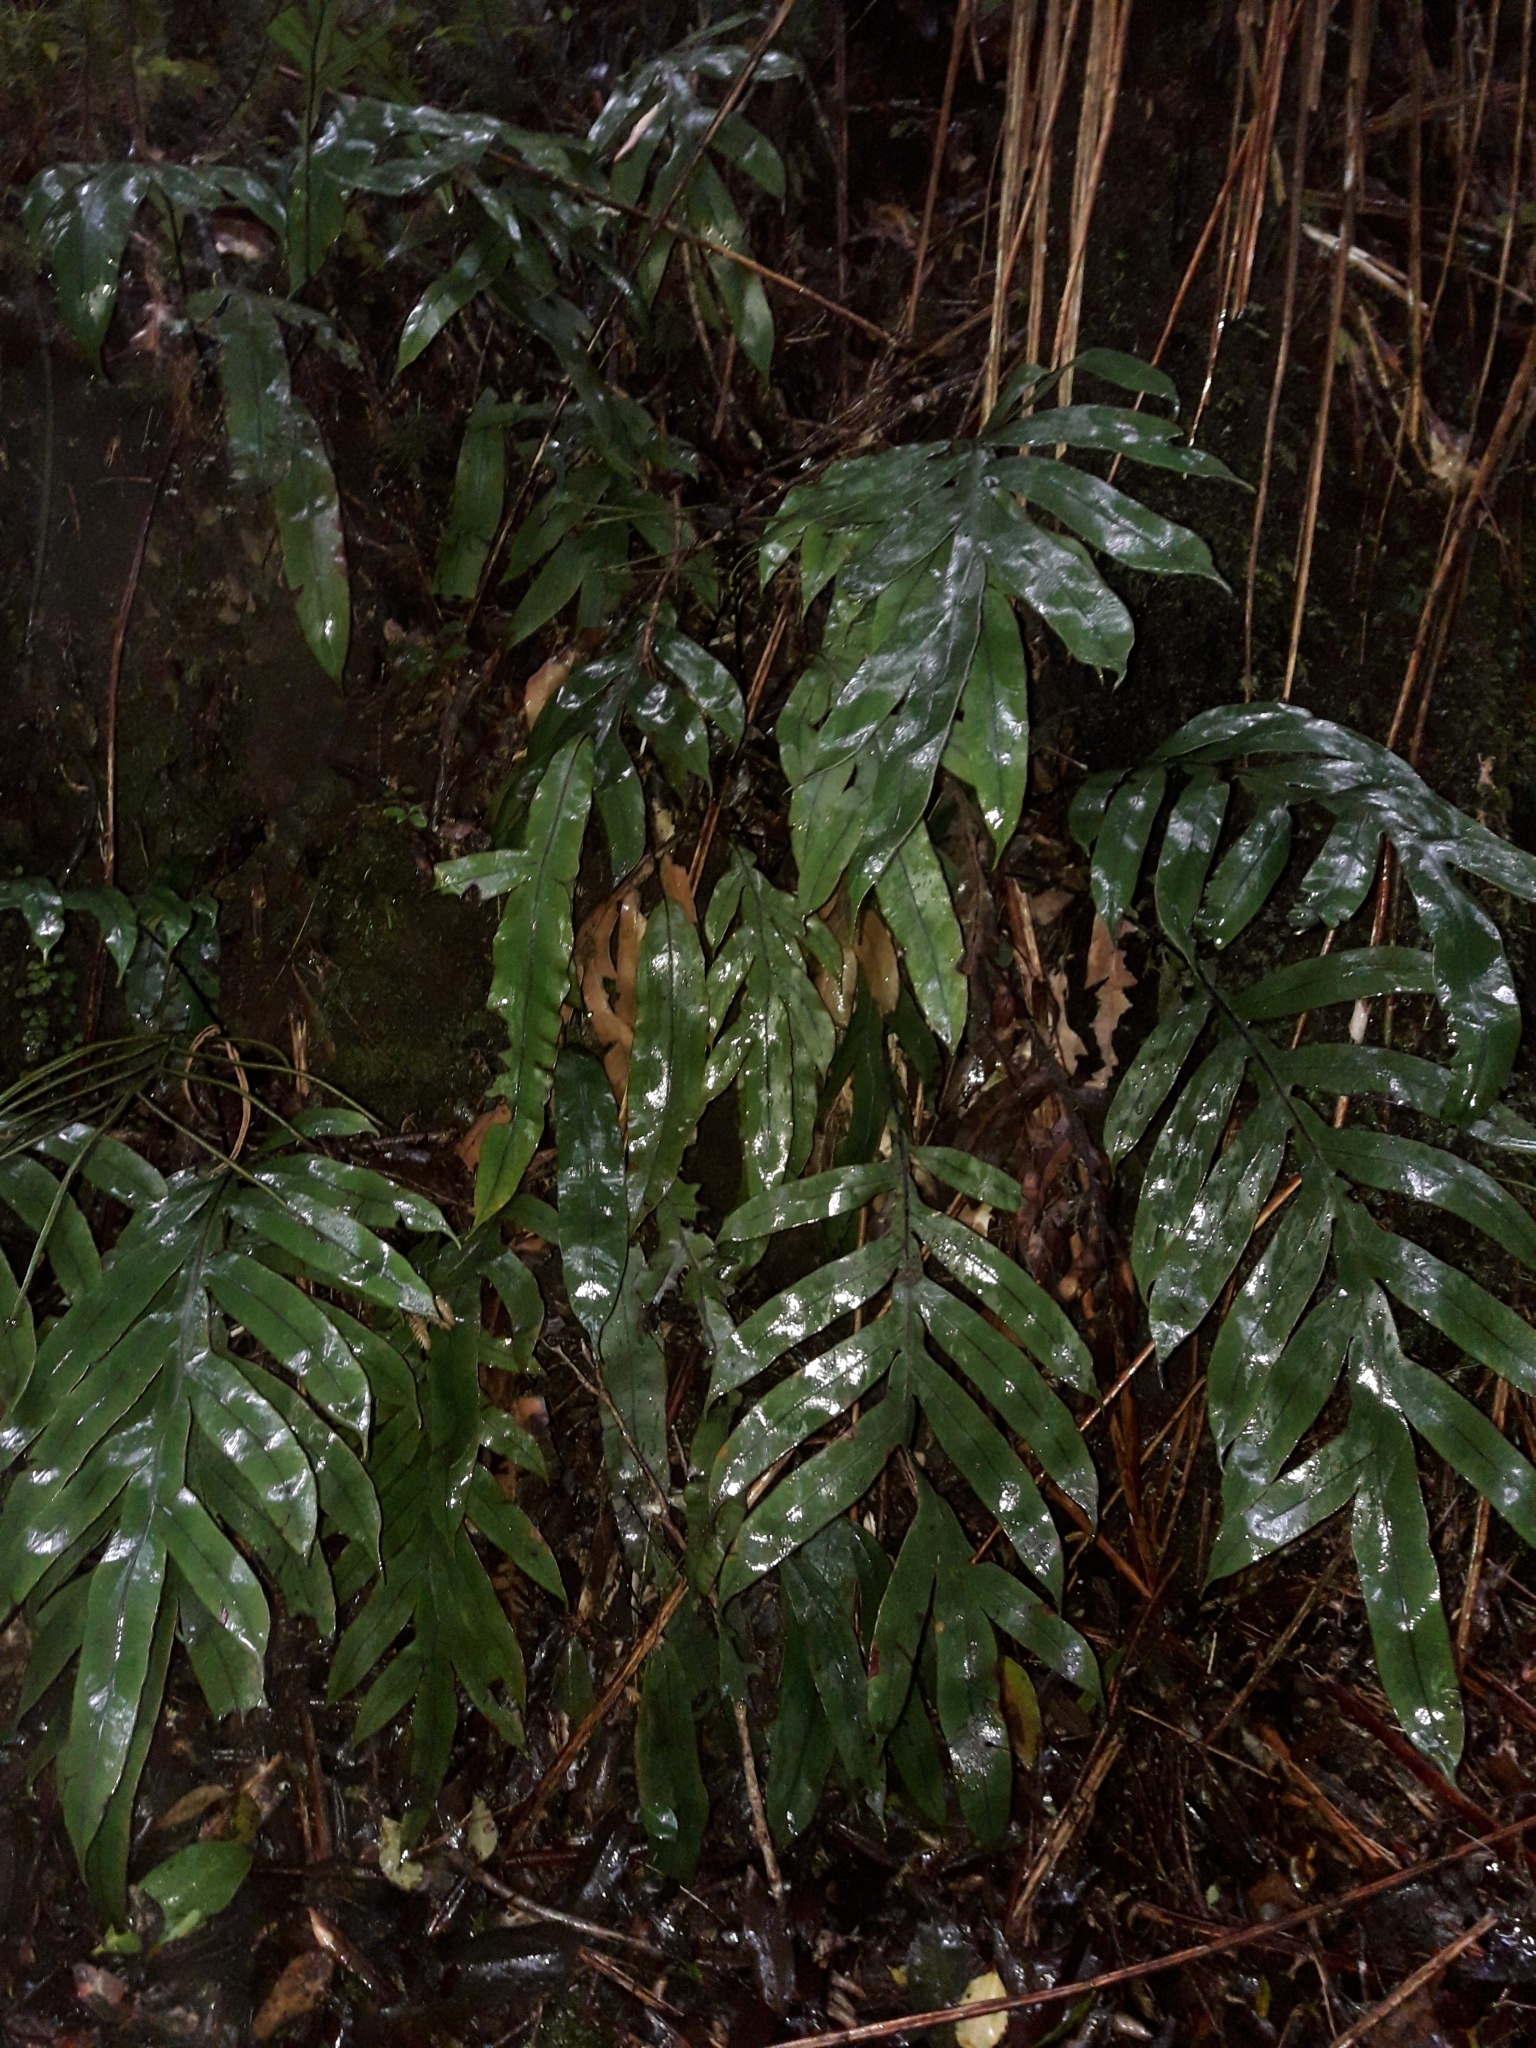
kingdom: Plantae
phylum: Tracheophyta
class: Polypodiopsida
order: Polypodiales
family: Blechnaceae
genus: Austroblechnum
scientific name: Austroblechnum colensoi
